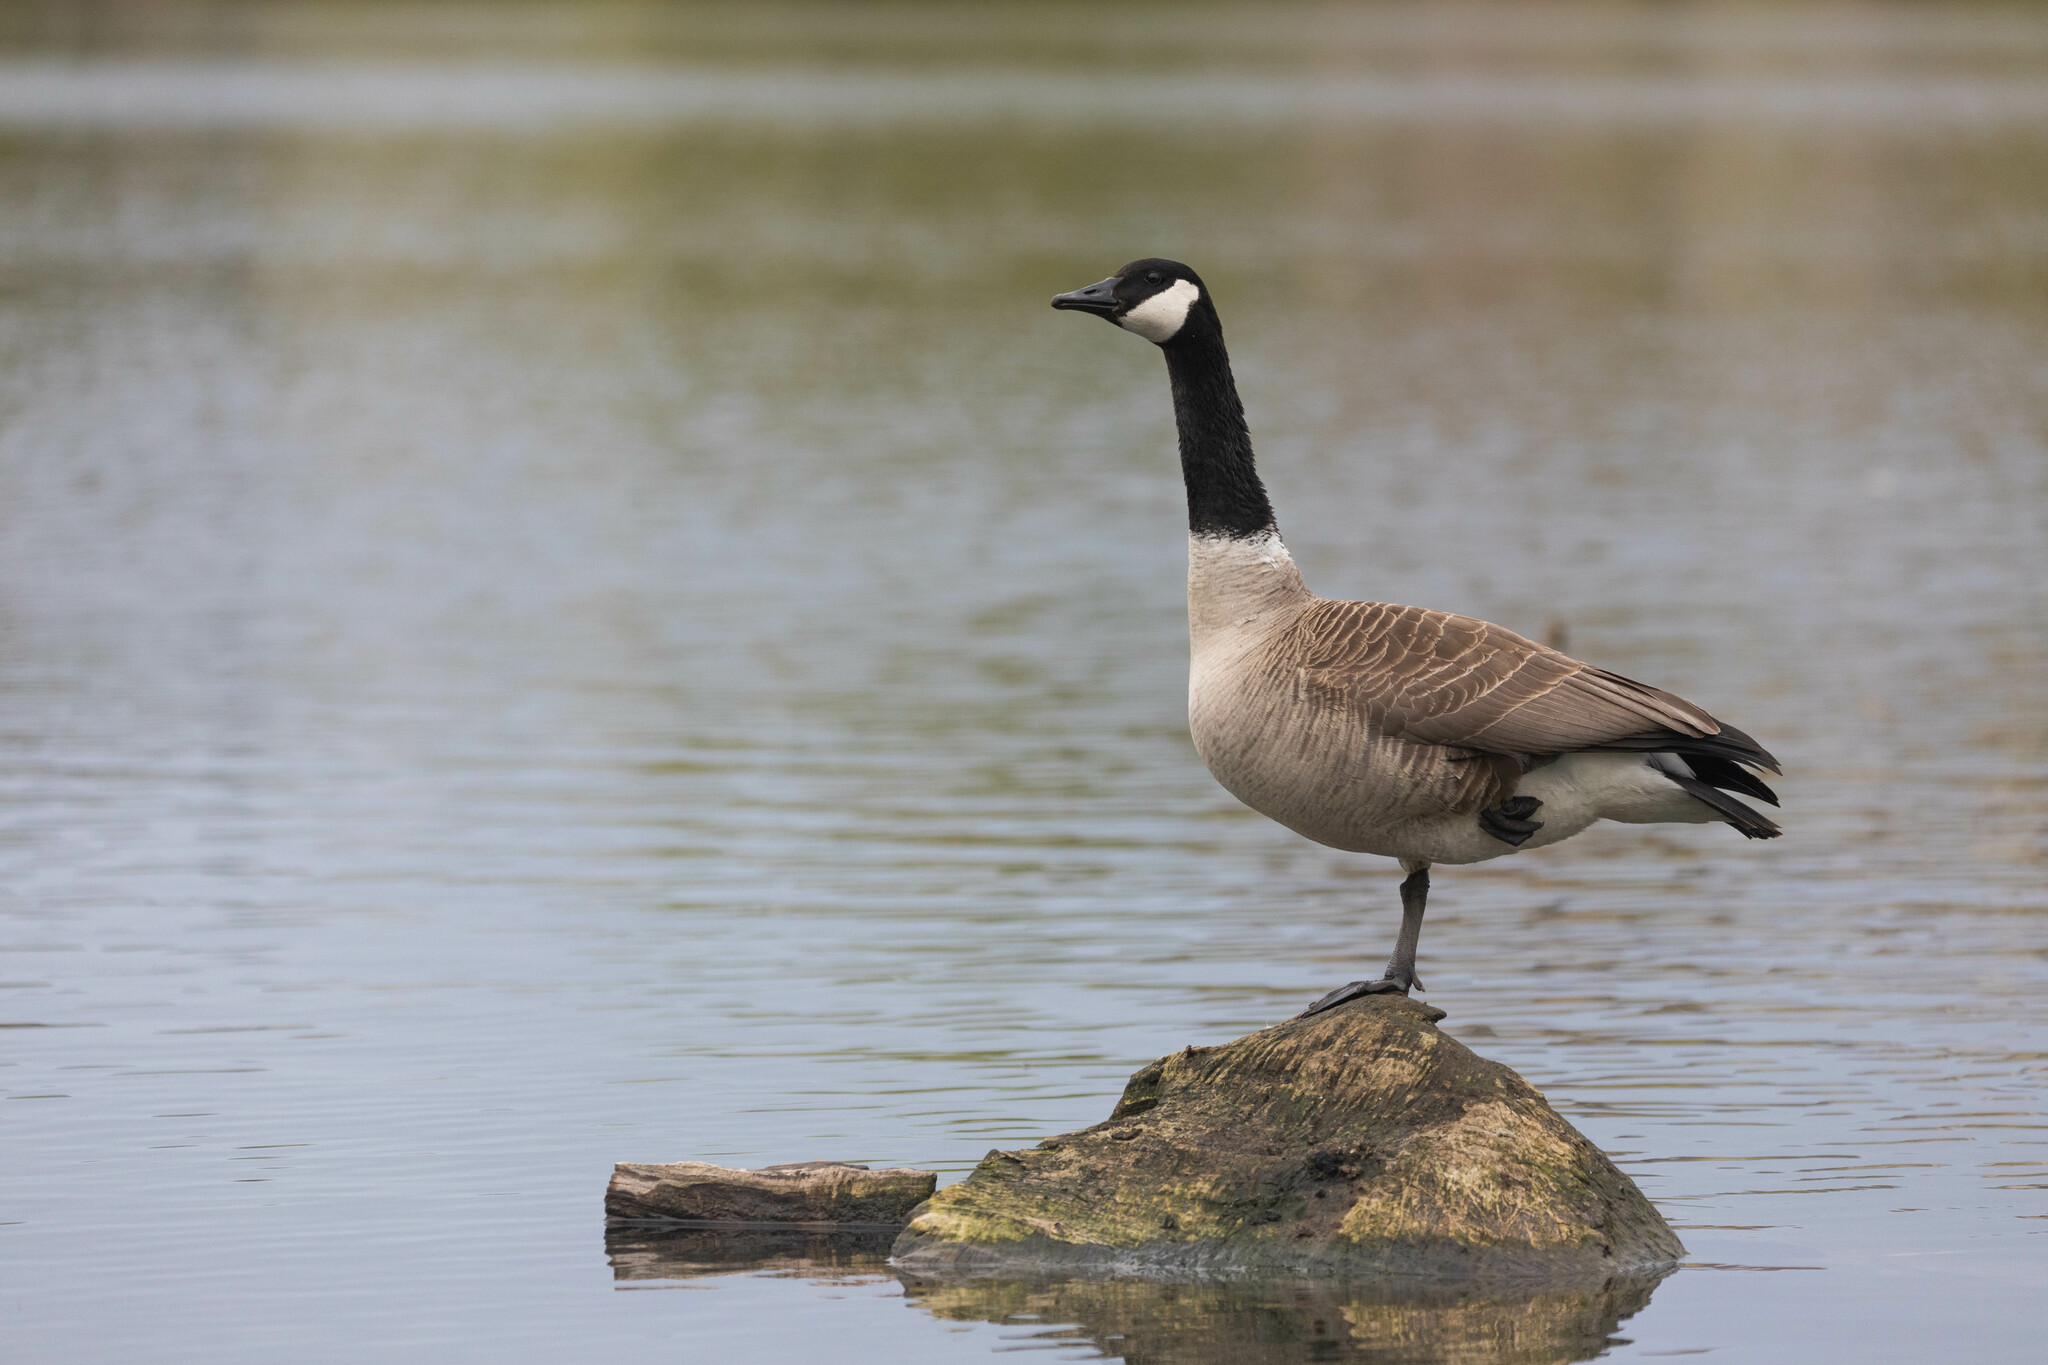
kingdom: Animalia
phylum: Chordata
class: Aves
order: Anseriformes
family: Anatidae
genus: Branta
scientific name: Branta canadensis
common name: Canada goose
